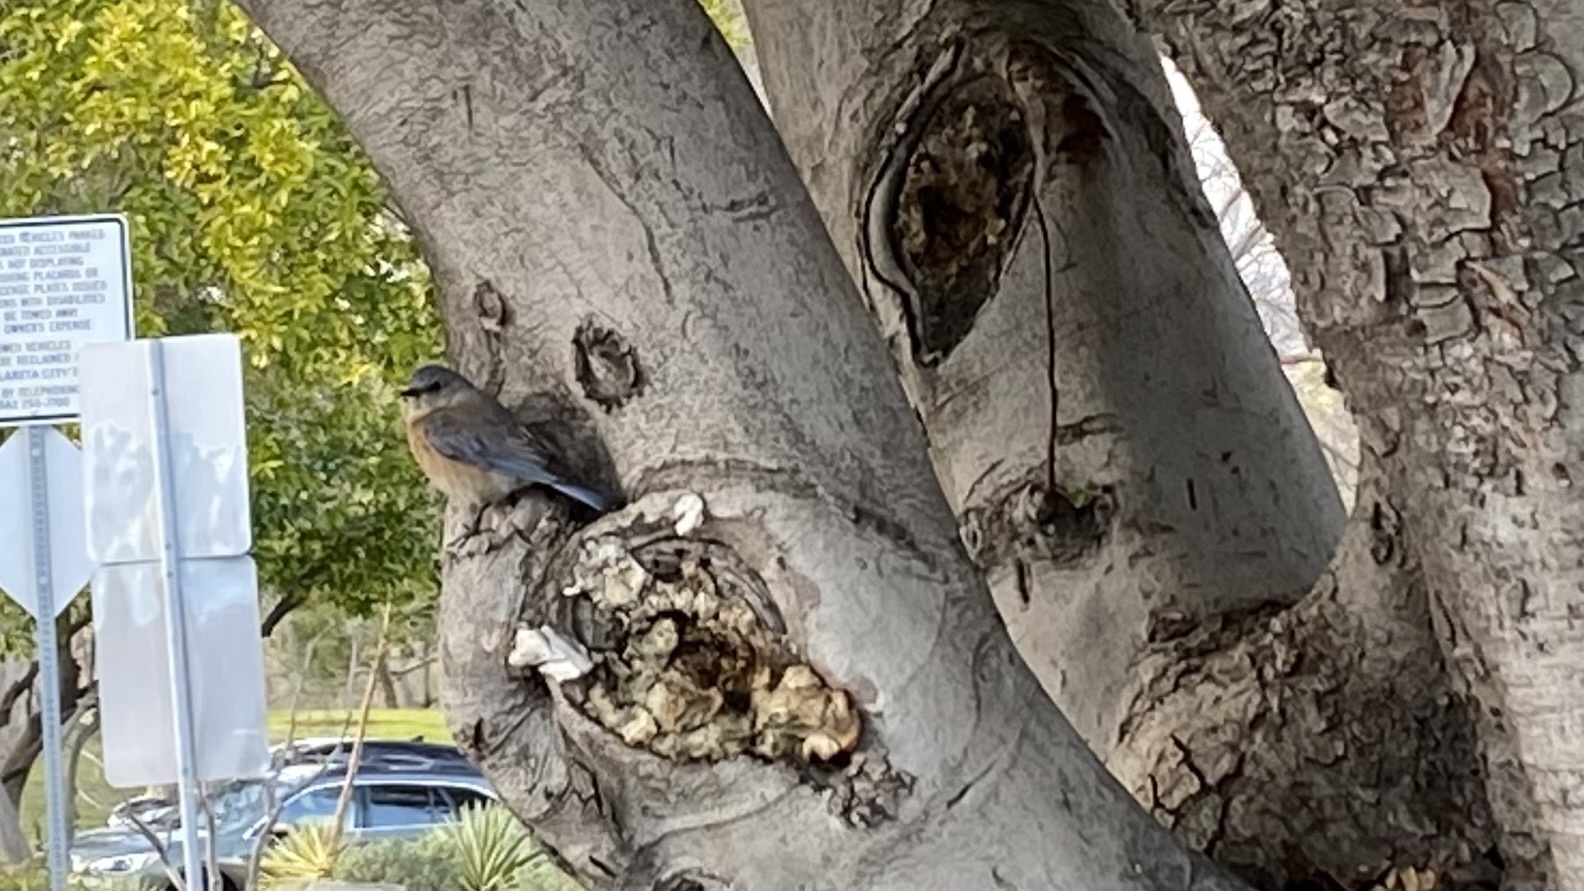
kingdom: Animalia
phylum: Chordata
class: Aves
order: Passeriformes
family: Turdidae
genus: Sialia
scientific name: Sialia mexicana
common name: Western bluebird
